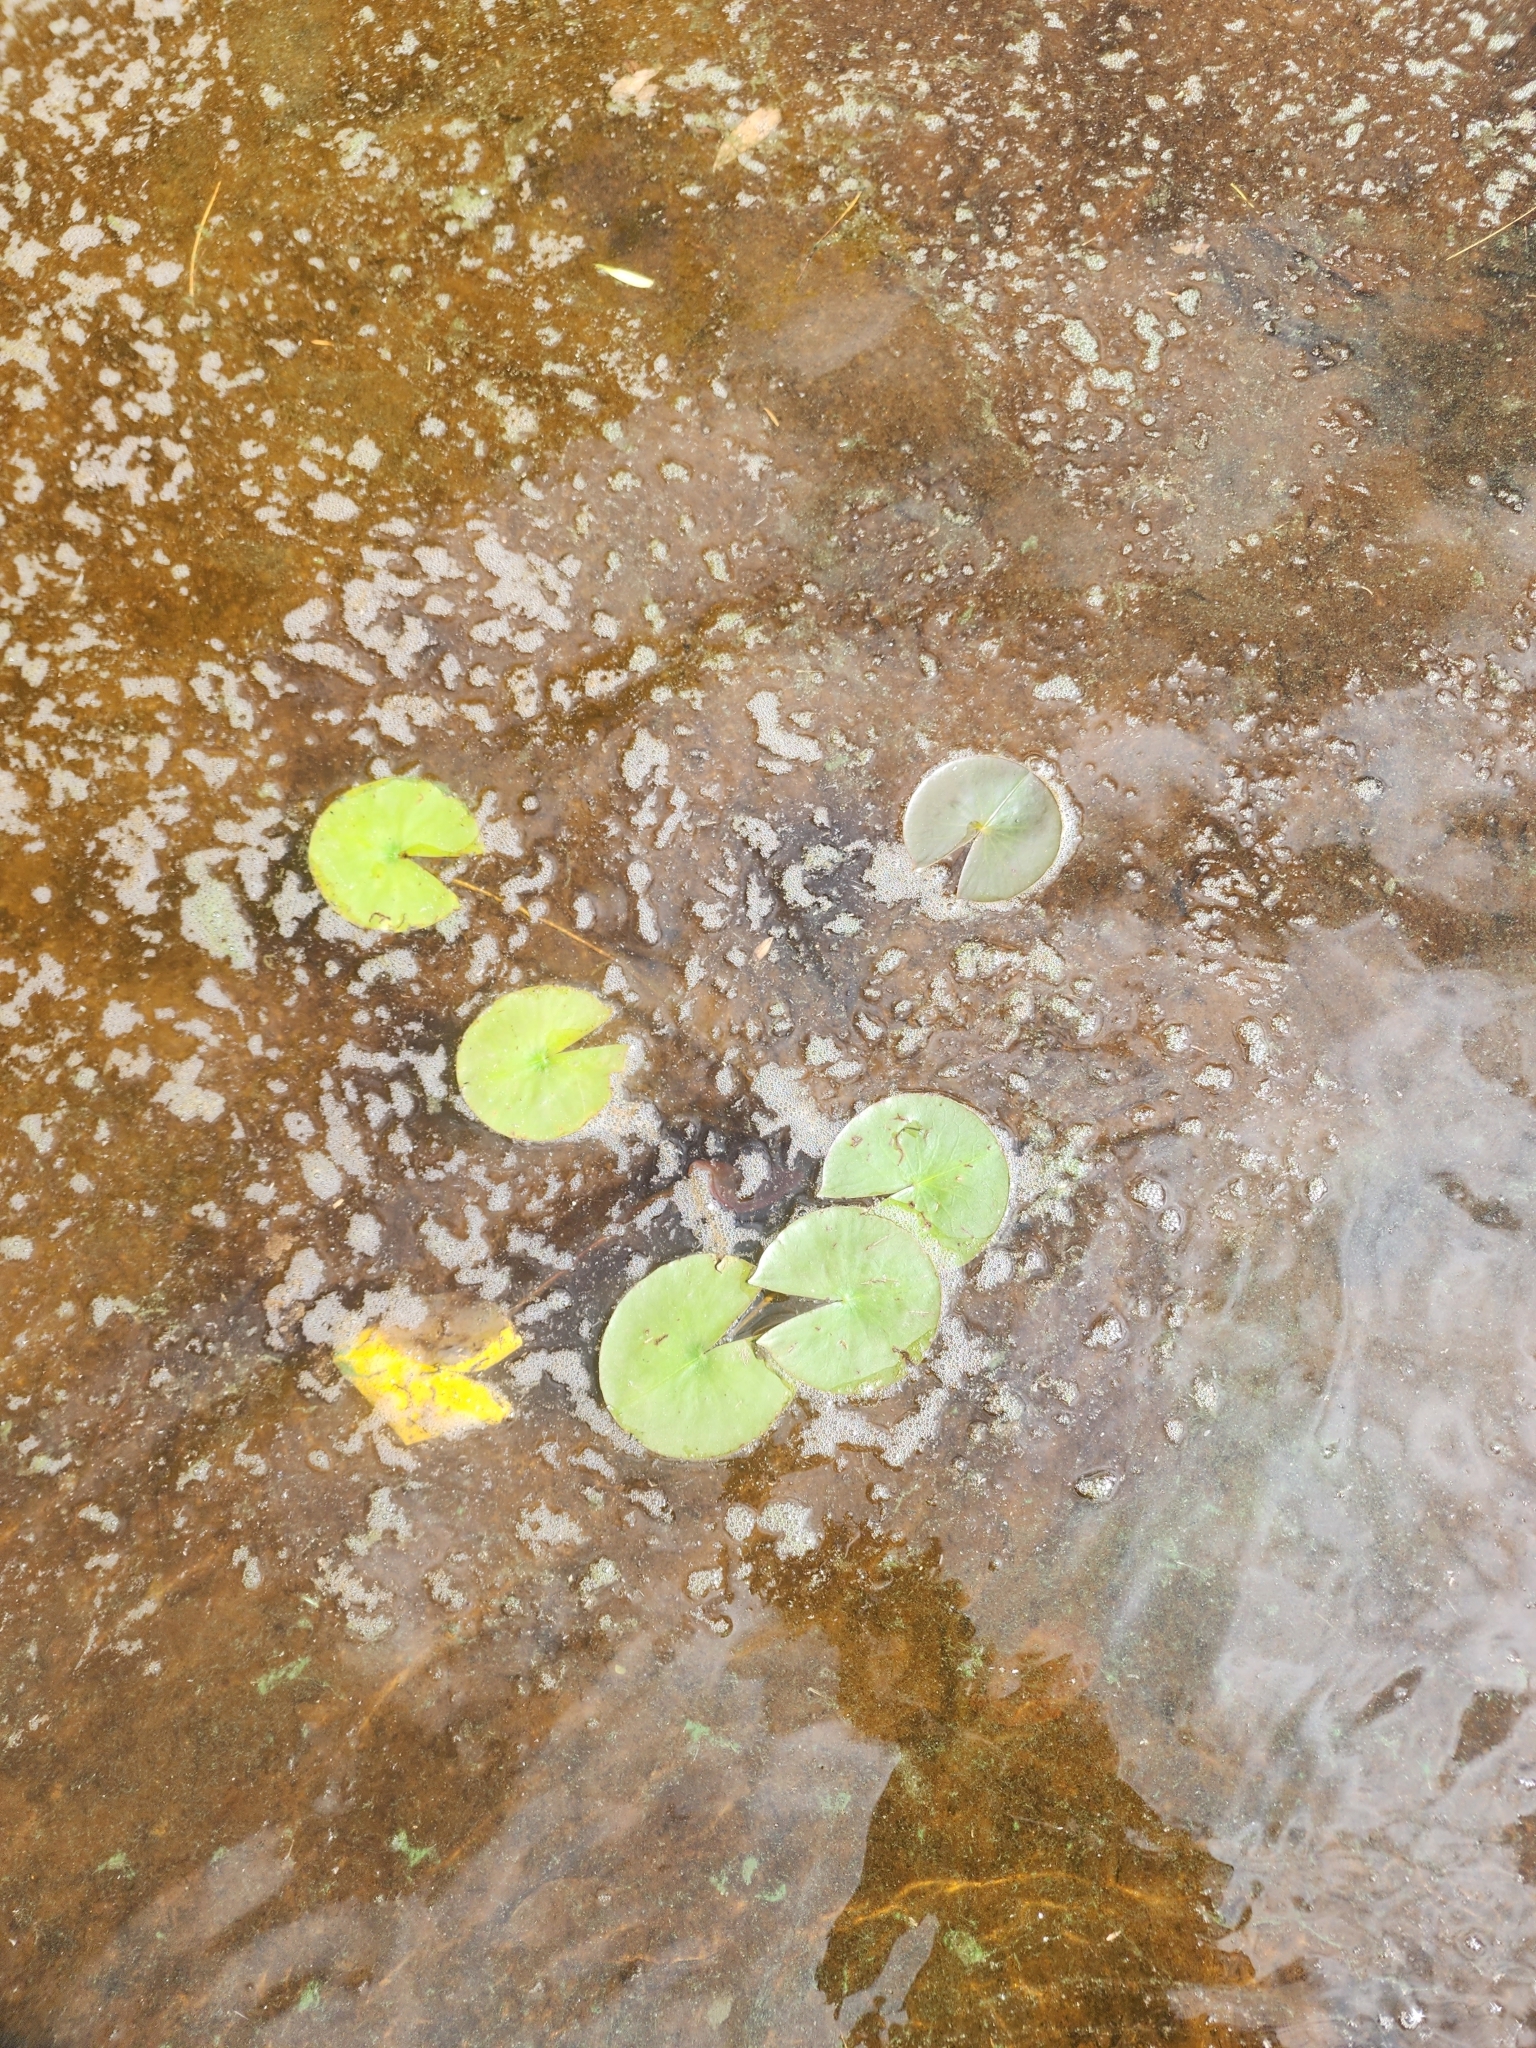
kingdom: Plantae
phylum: Tracheophyta
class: Magnoliopsida
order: Nymphaeales
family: Nymphaeaceae
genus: Nymphaea
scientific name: Nymphaea odorata
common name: Fragrant water-lily
